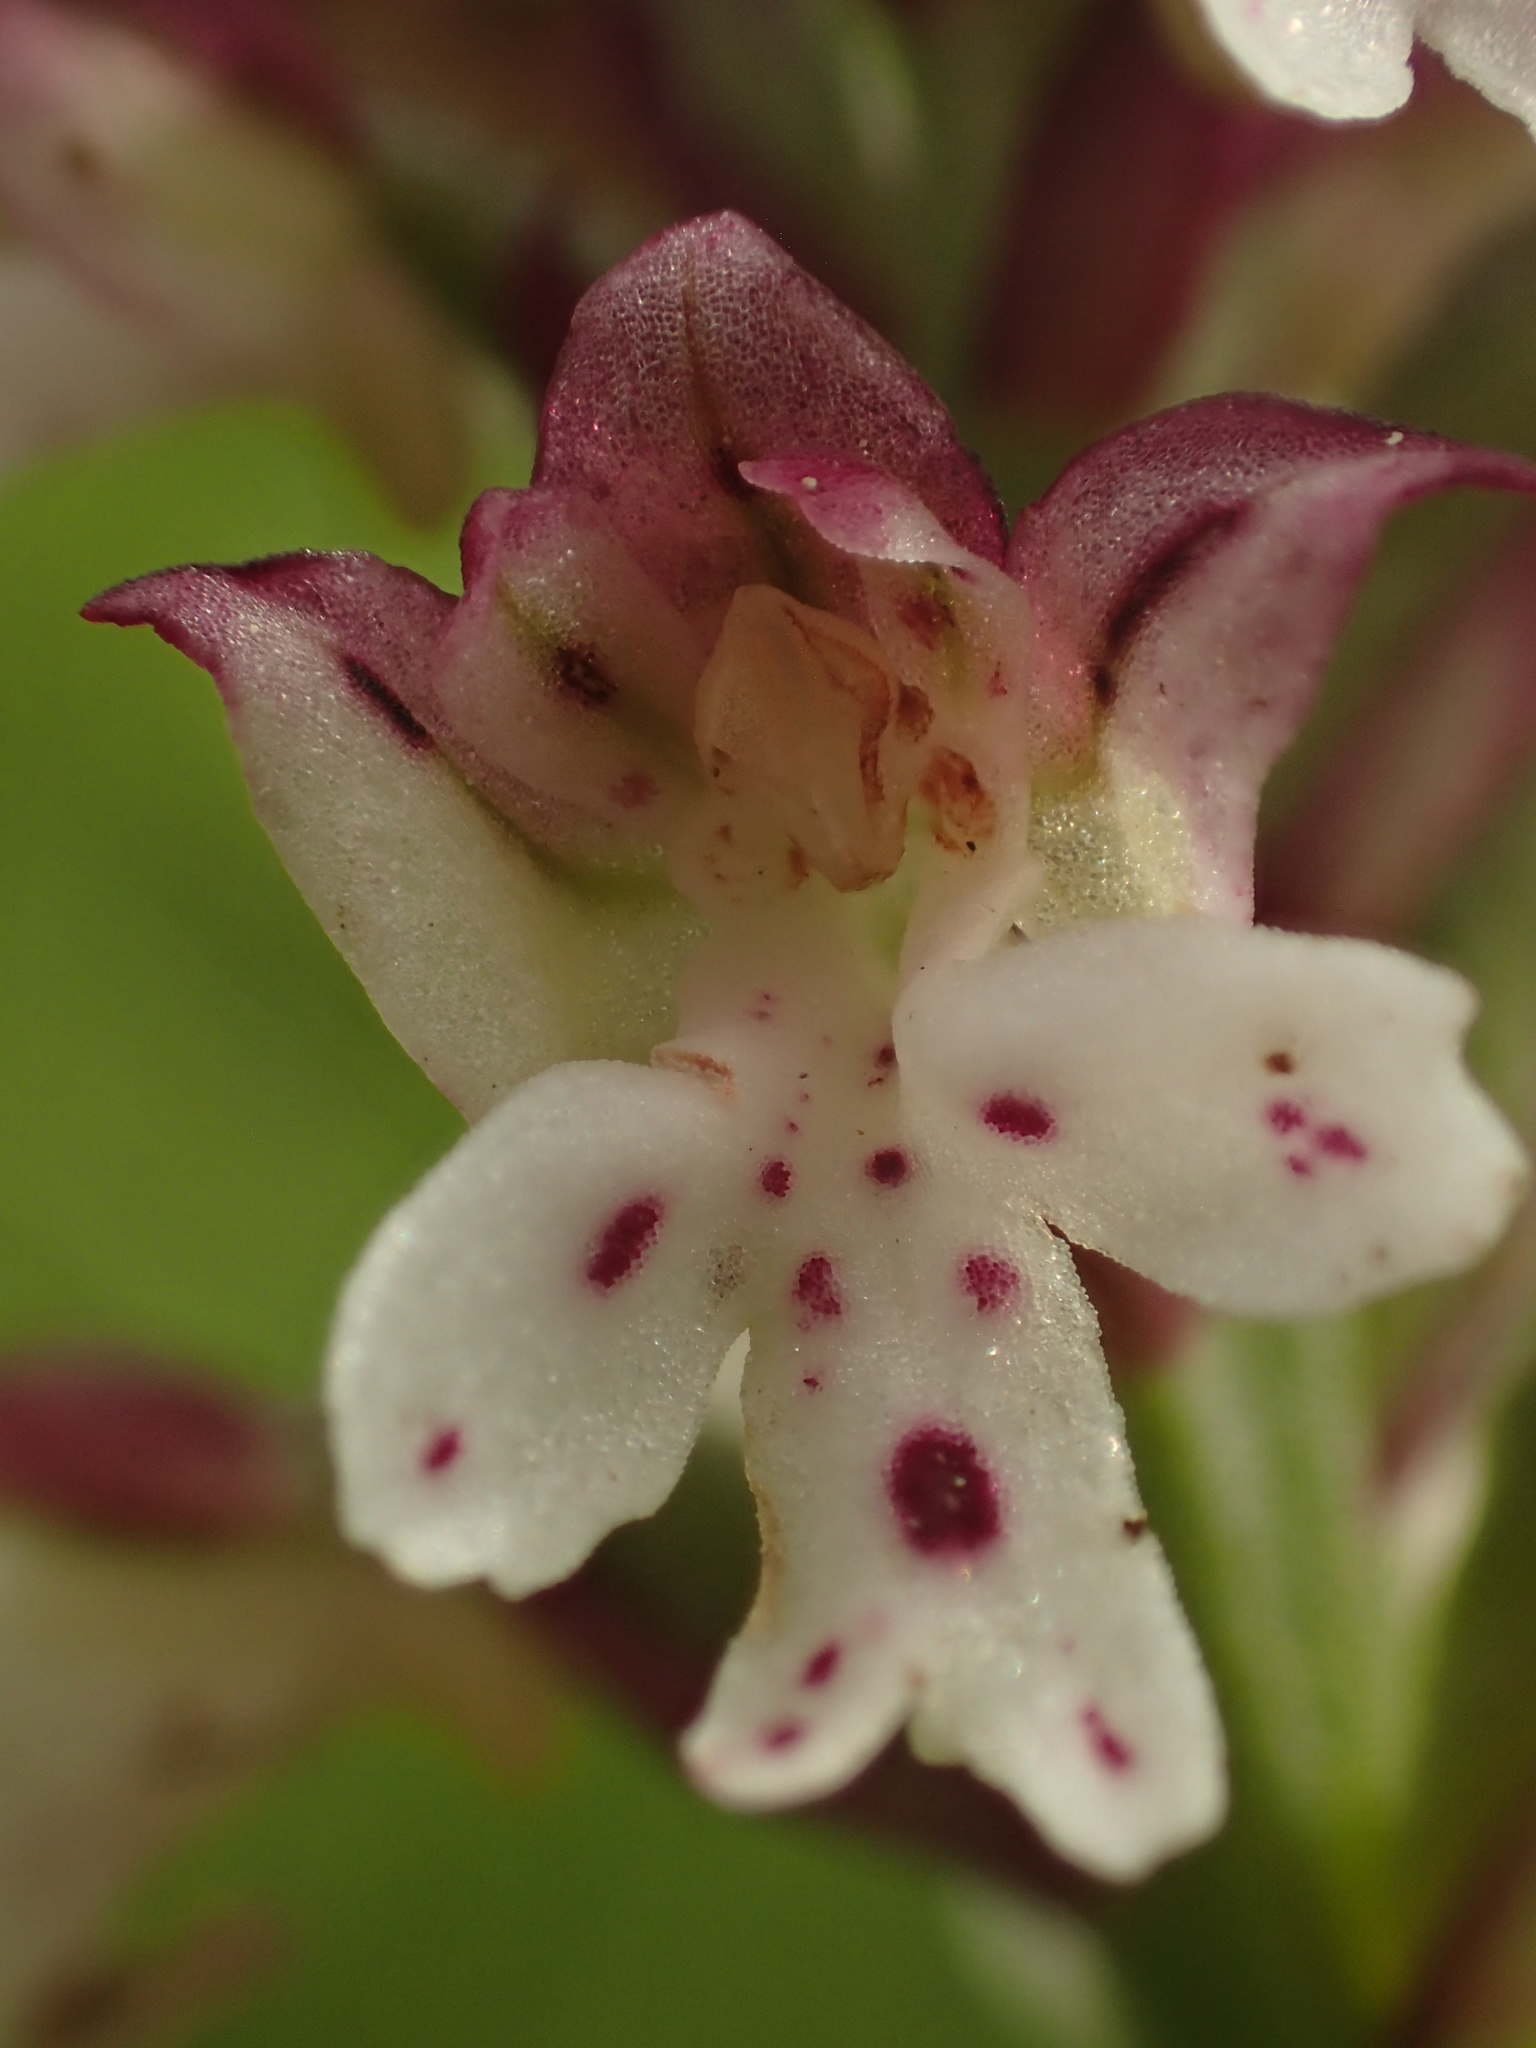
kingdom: Plantae
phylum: Tracheophyta
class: Liliopsida
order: Asparagales
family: Orchidaceae
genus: Neotinea
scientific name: Neotinea ustulata
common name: Burnt orchid
